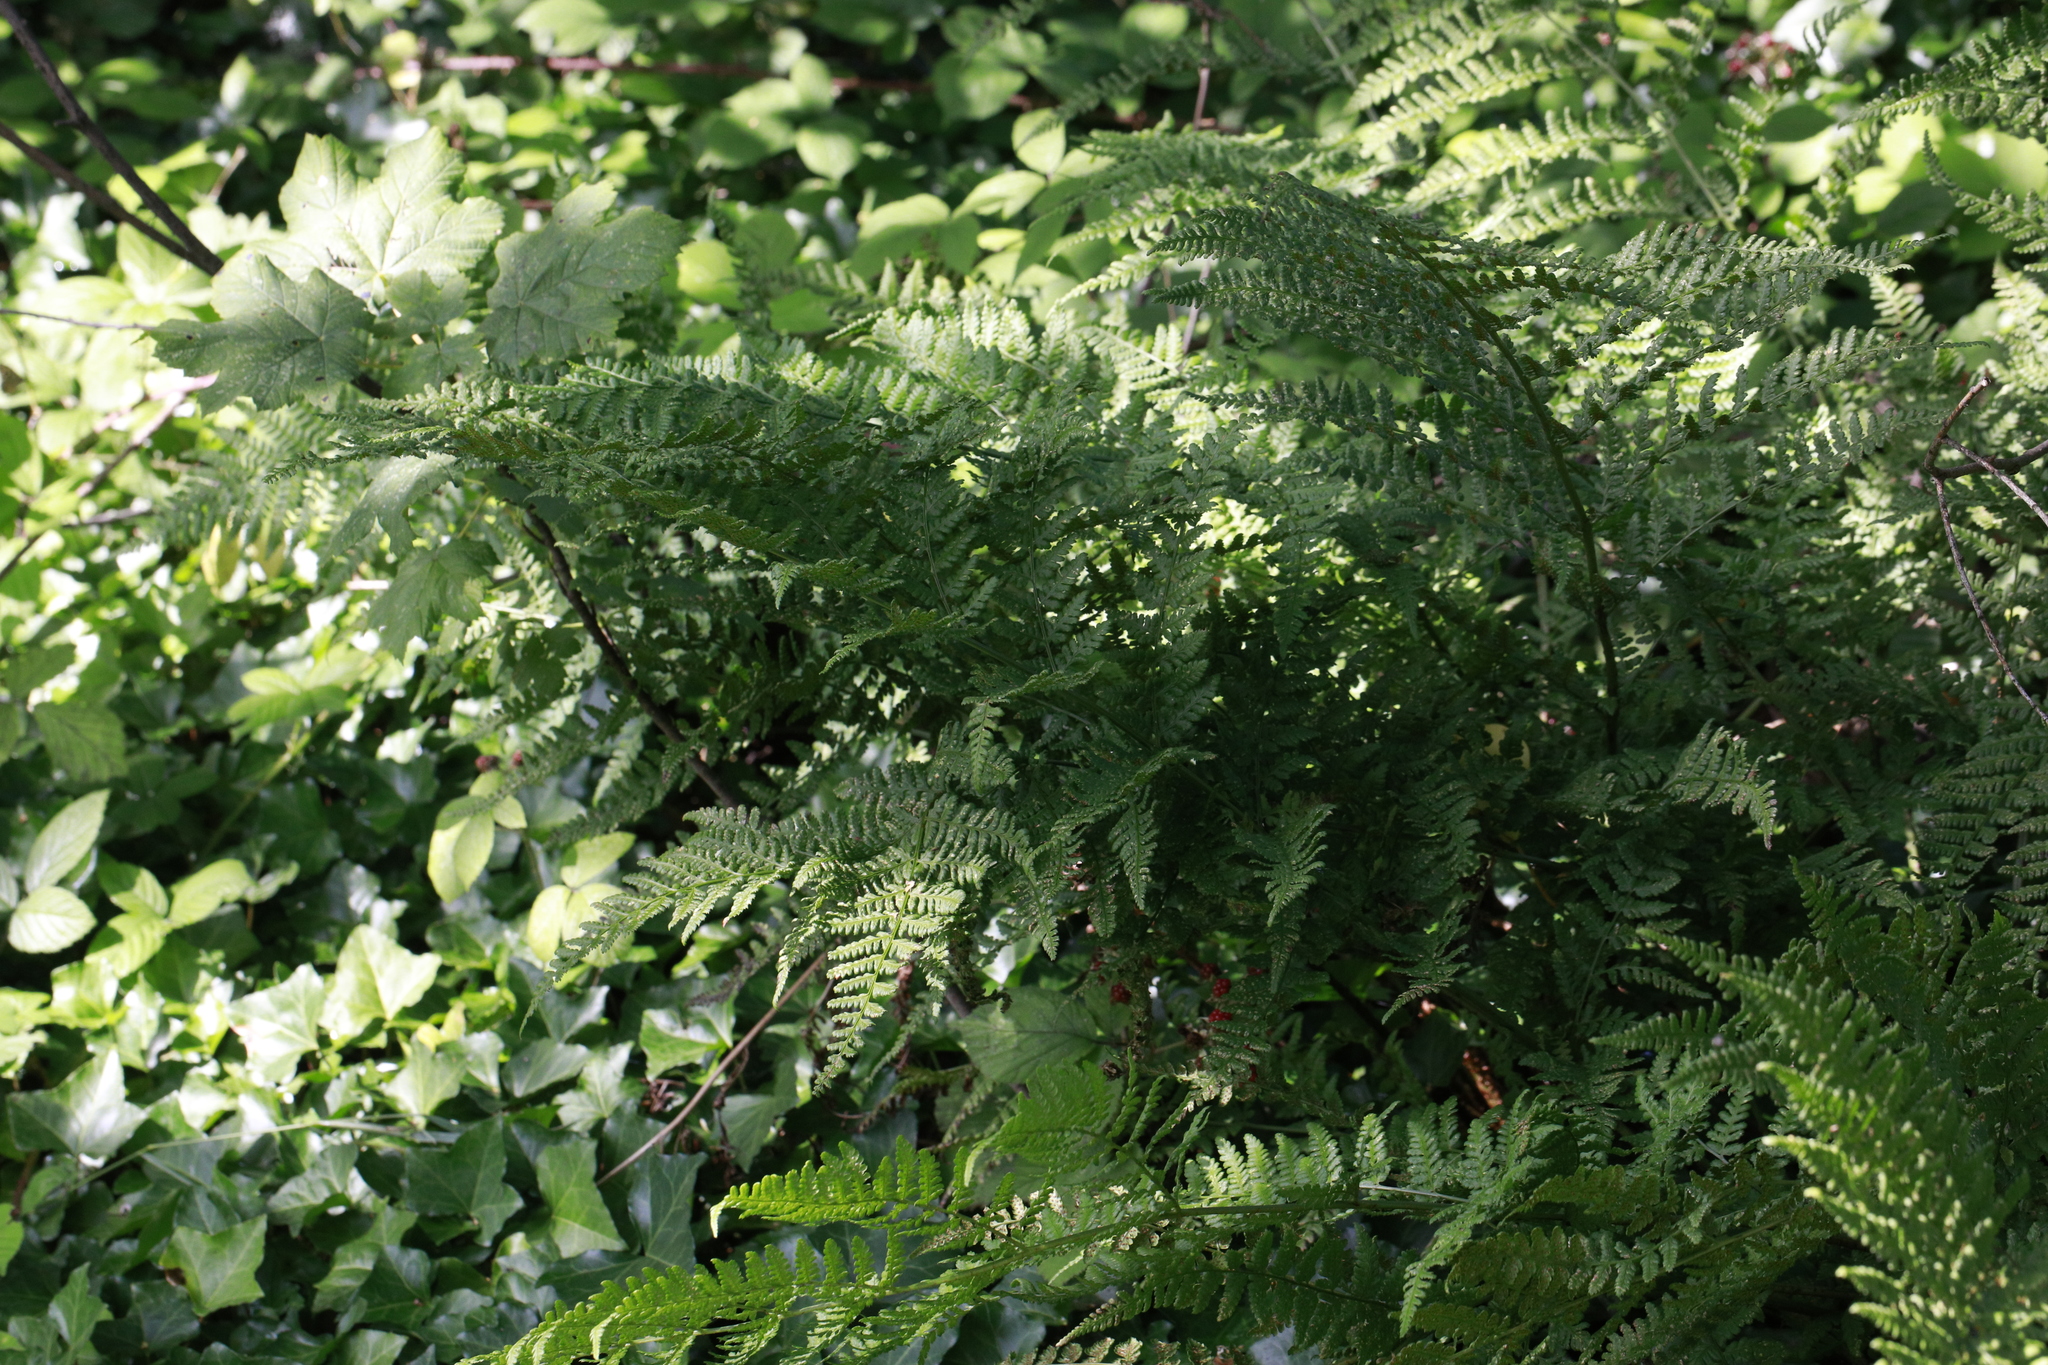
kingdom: Plantae
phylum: Tracheophyta
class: Polypodiopsida
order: Polypodiales
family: Dryopteridaceae
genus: Dryopteris
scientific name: Dryopteris dilatata
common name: Broad buckler-fern
